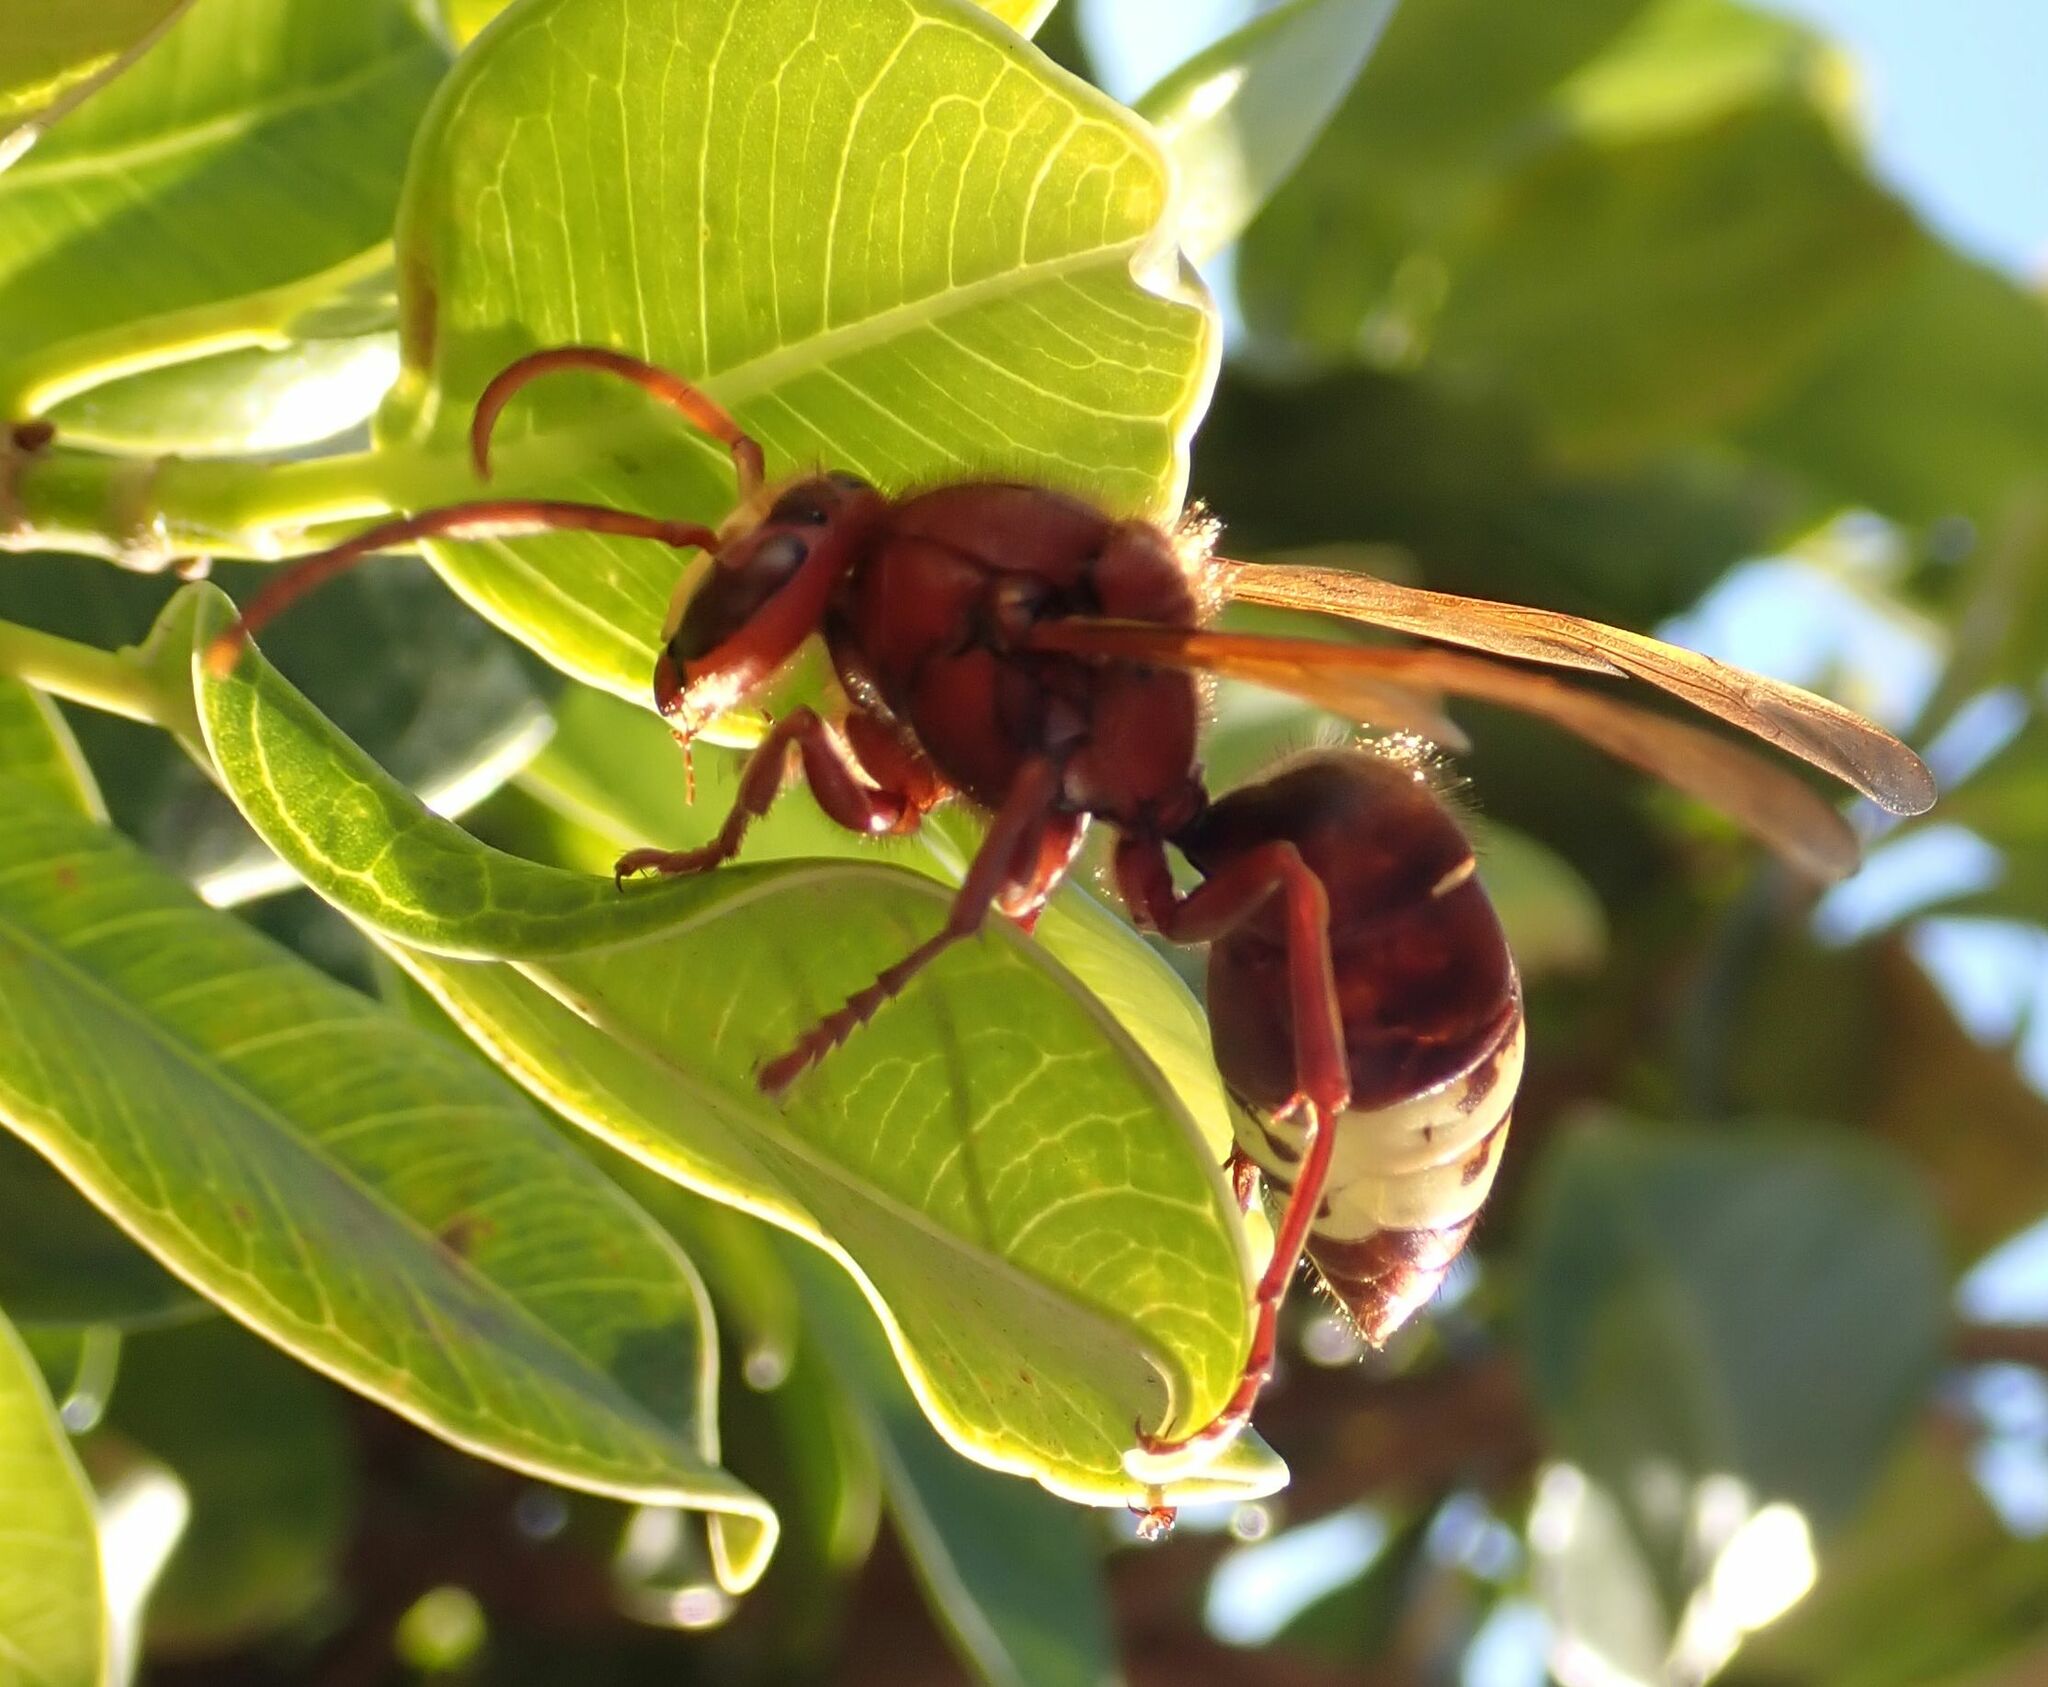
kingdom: Animalia
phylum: Arthropoda
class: Insecta
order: Hymenoptera
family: Vespidae
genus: Vespa
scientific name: Vespa orientalis
